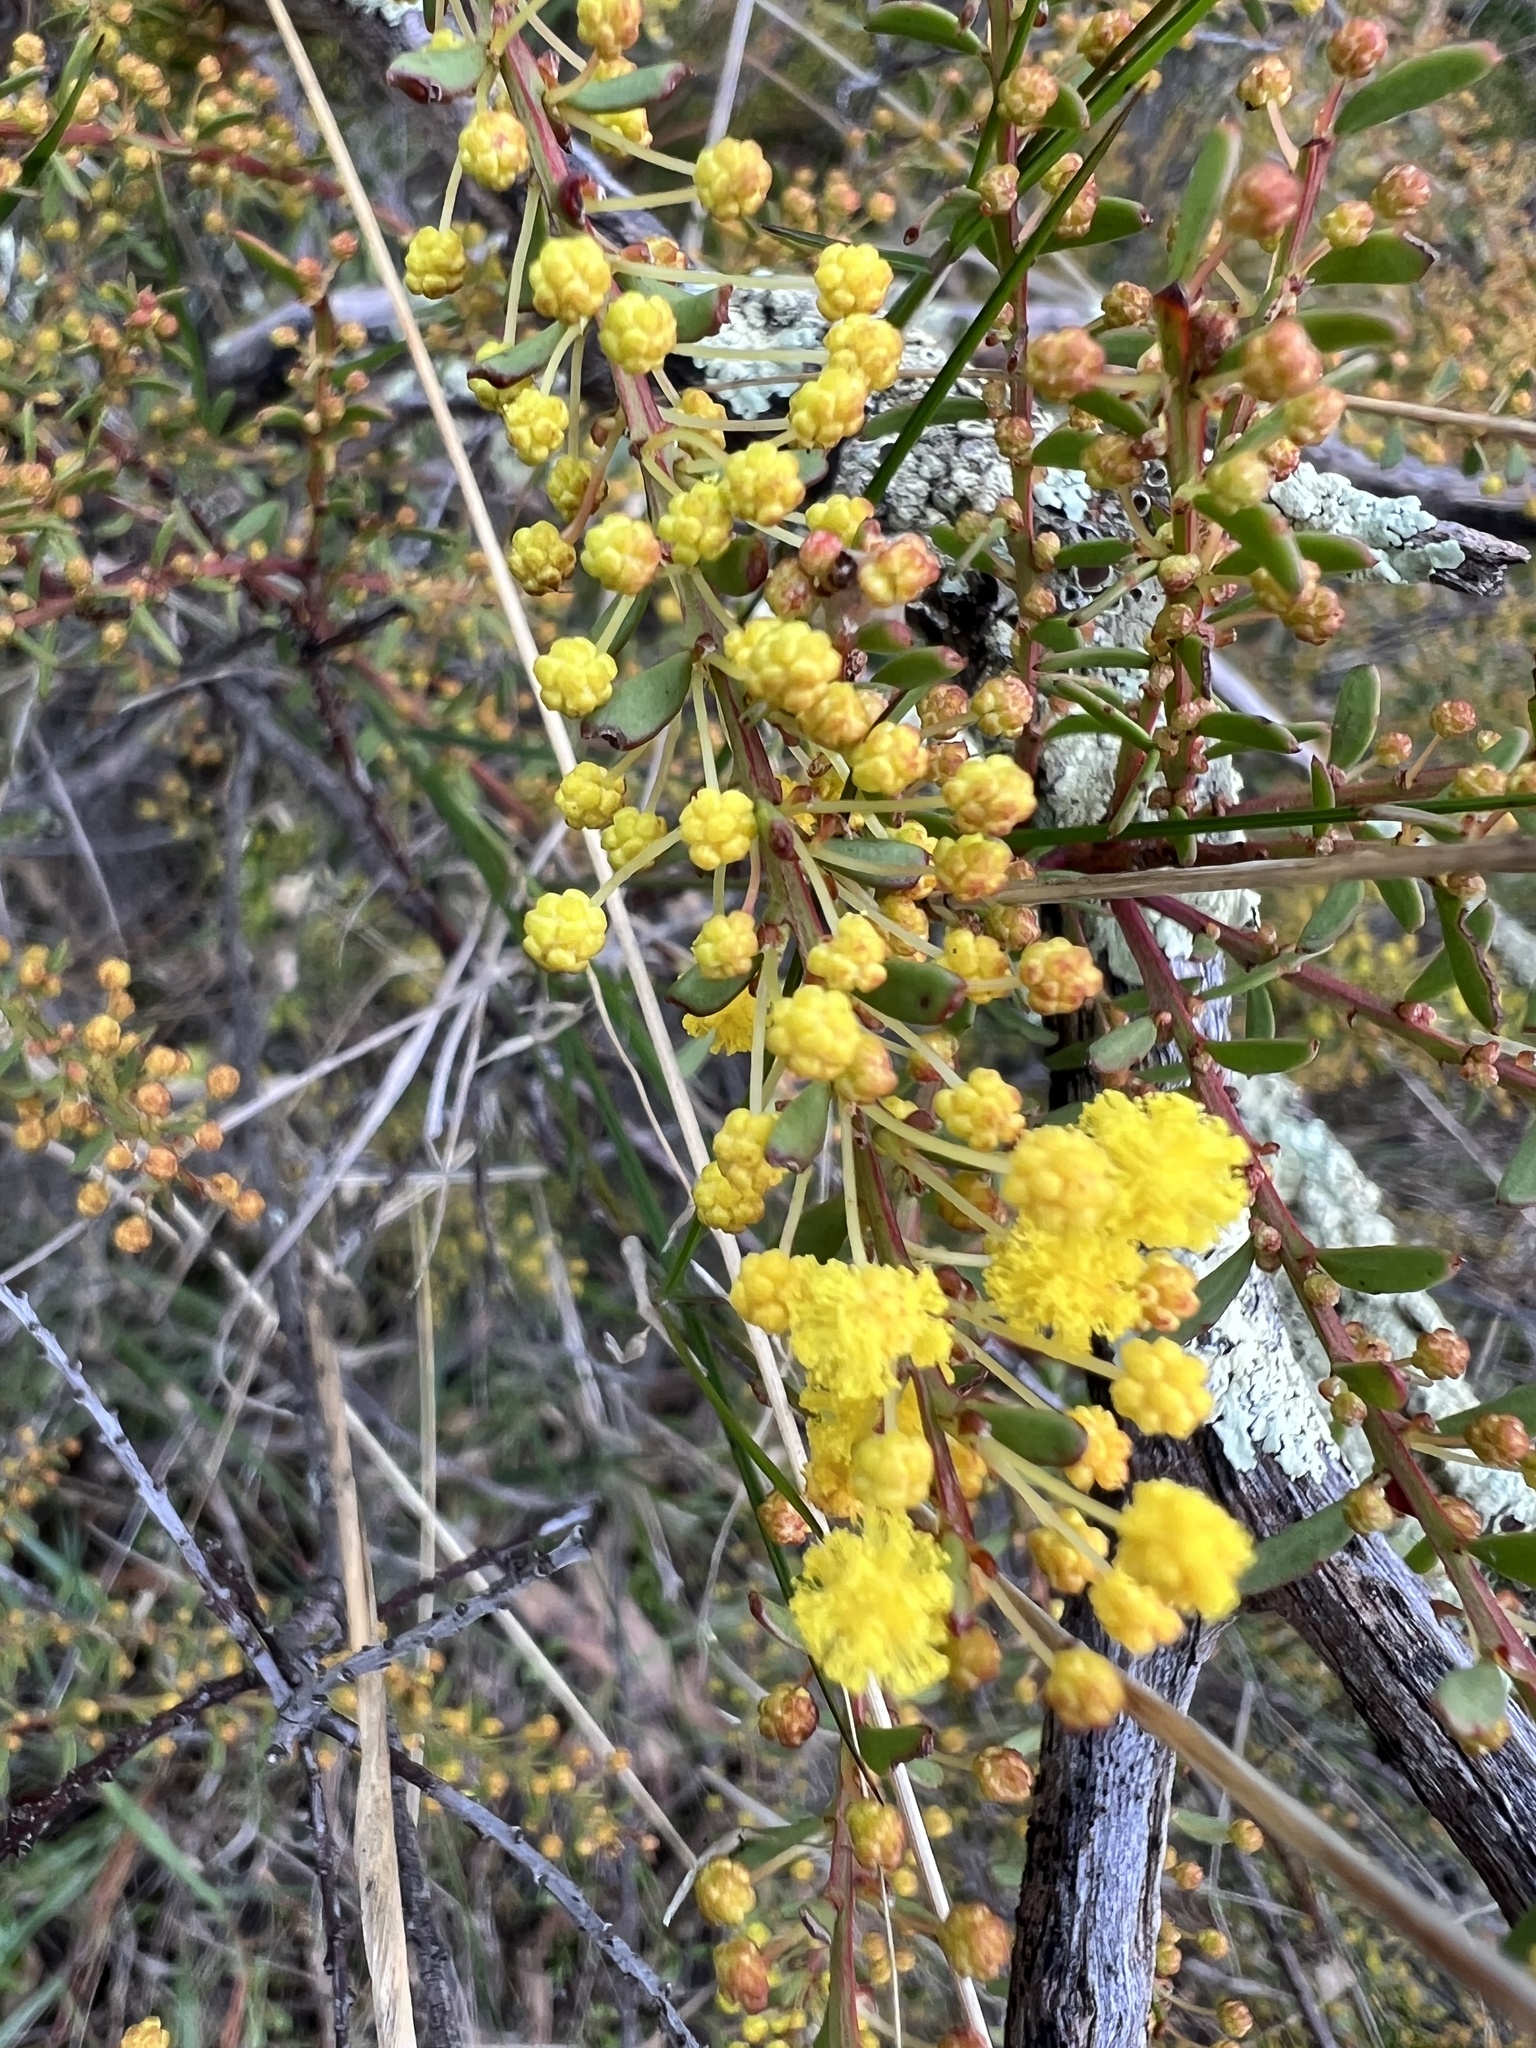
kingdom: Plantae
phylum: Tracheophyta
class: Magnoliopsida
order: Fabales
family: Fabaceae
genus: Acacia
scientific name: Acacia acinacea
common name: Gold-dust acacia
